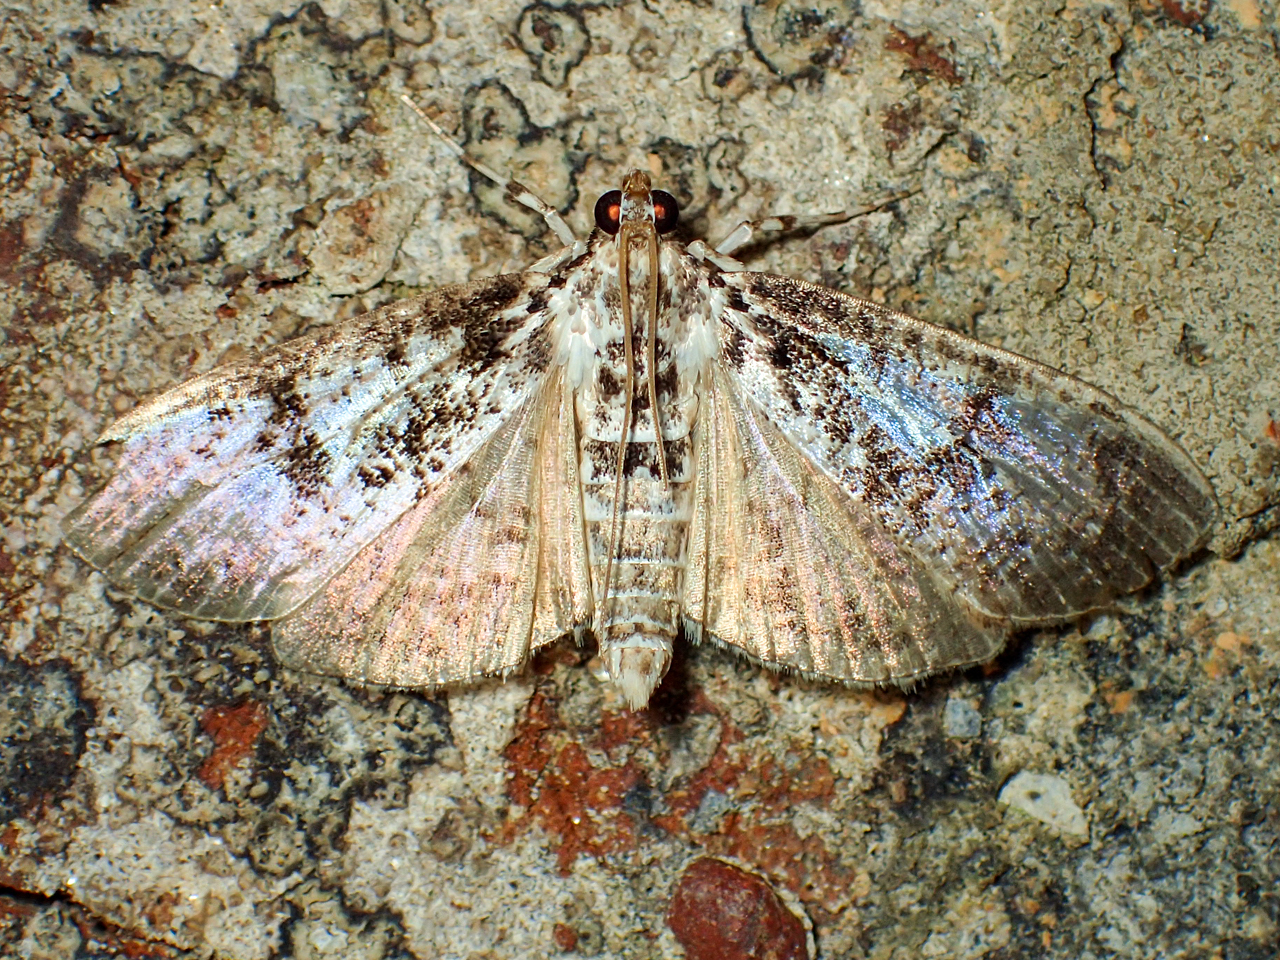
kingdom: Animalia
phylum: Arthropoda
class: Insecta
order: Lepidoptera
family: Crambidae
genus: Palpita
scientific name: Palpita magniferalis
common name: Splendid palpita moth
